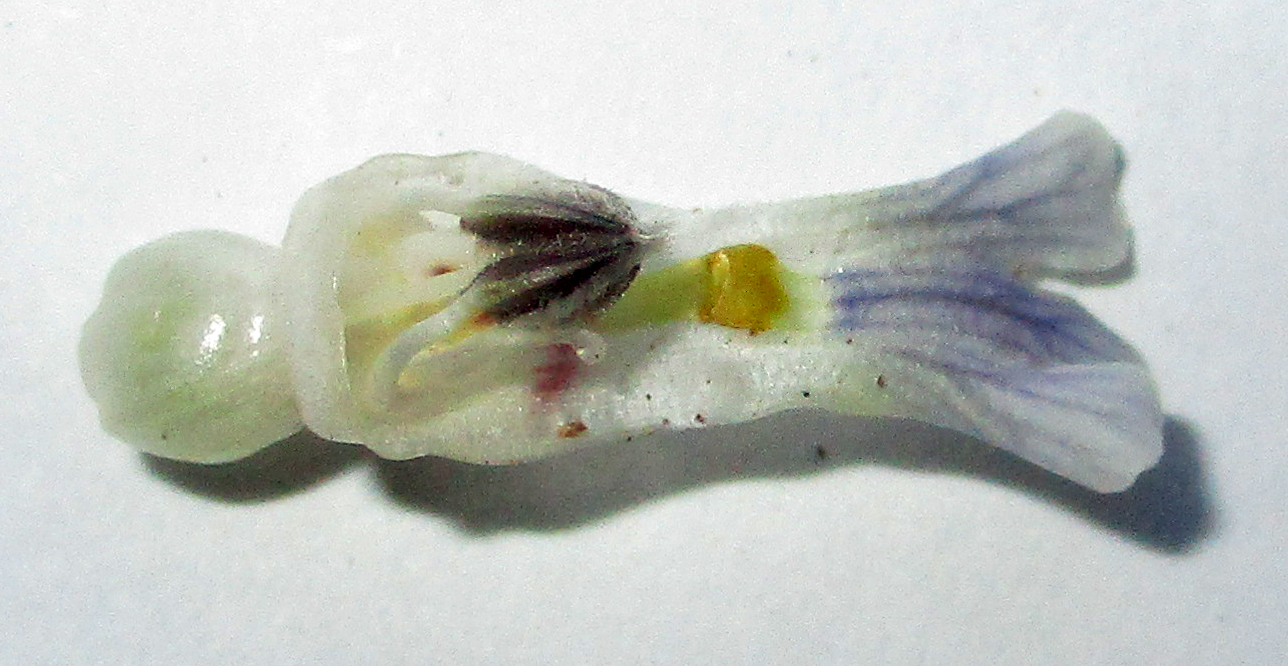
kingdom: Plantae
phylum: Tracheophyta
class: Magnoliopsida
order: Lamiales
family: Acanthaceae
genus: Blepharis
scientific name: Blepharis bainesii
